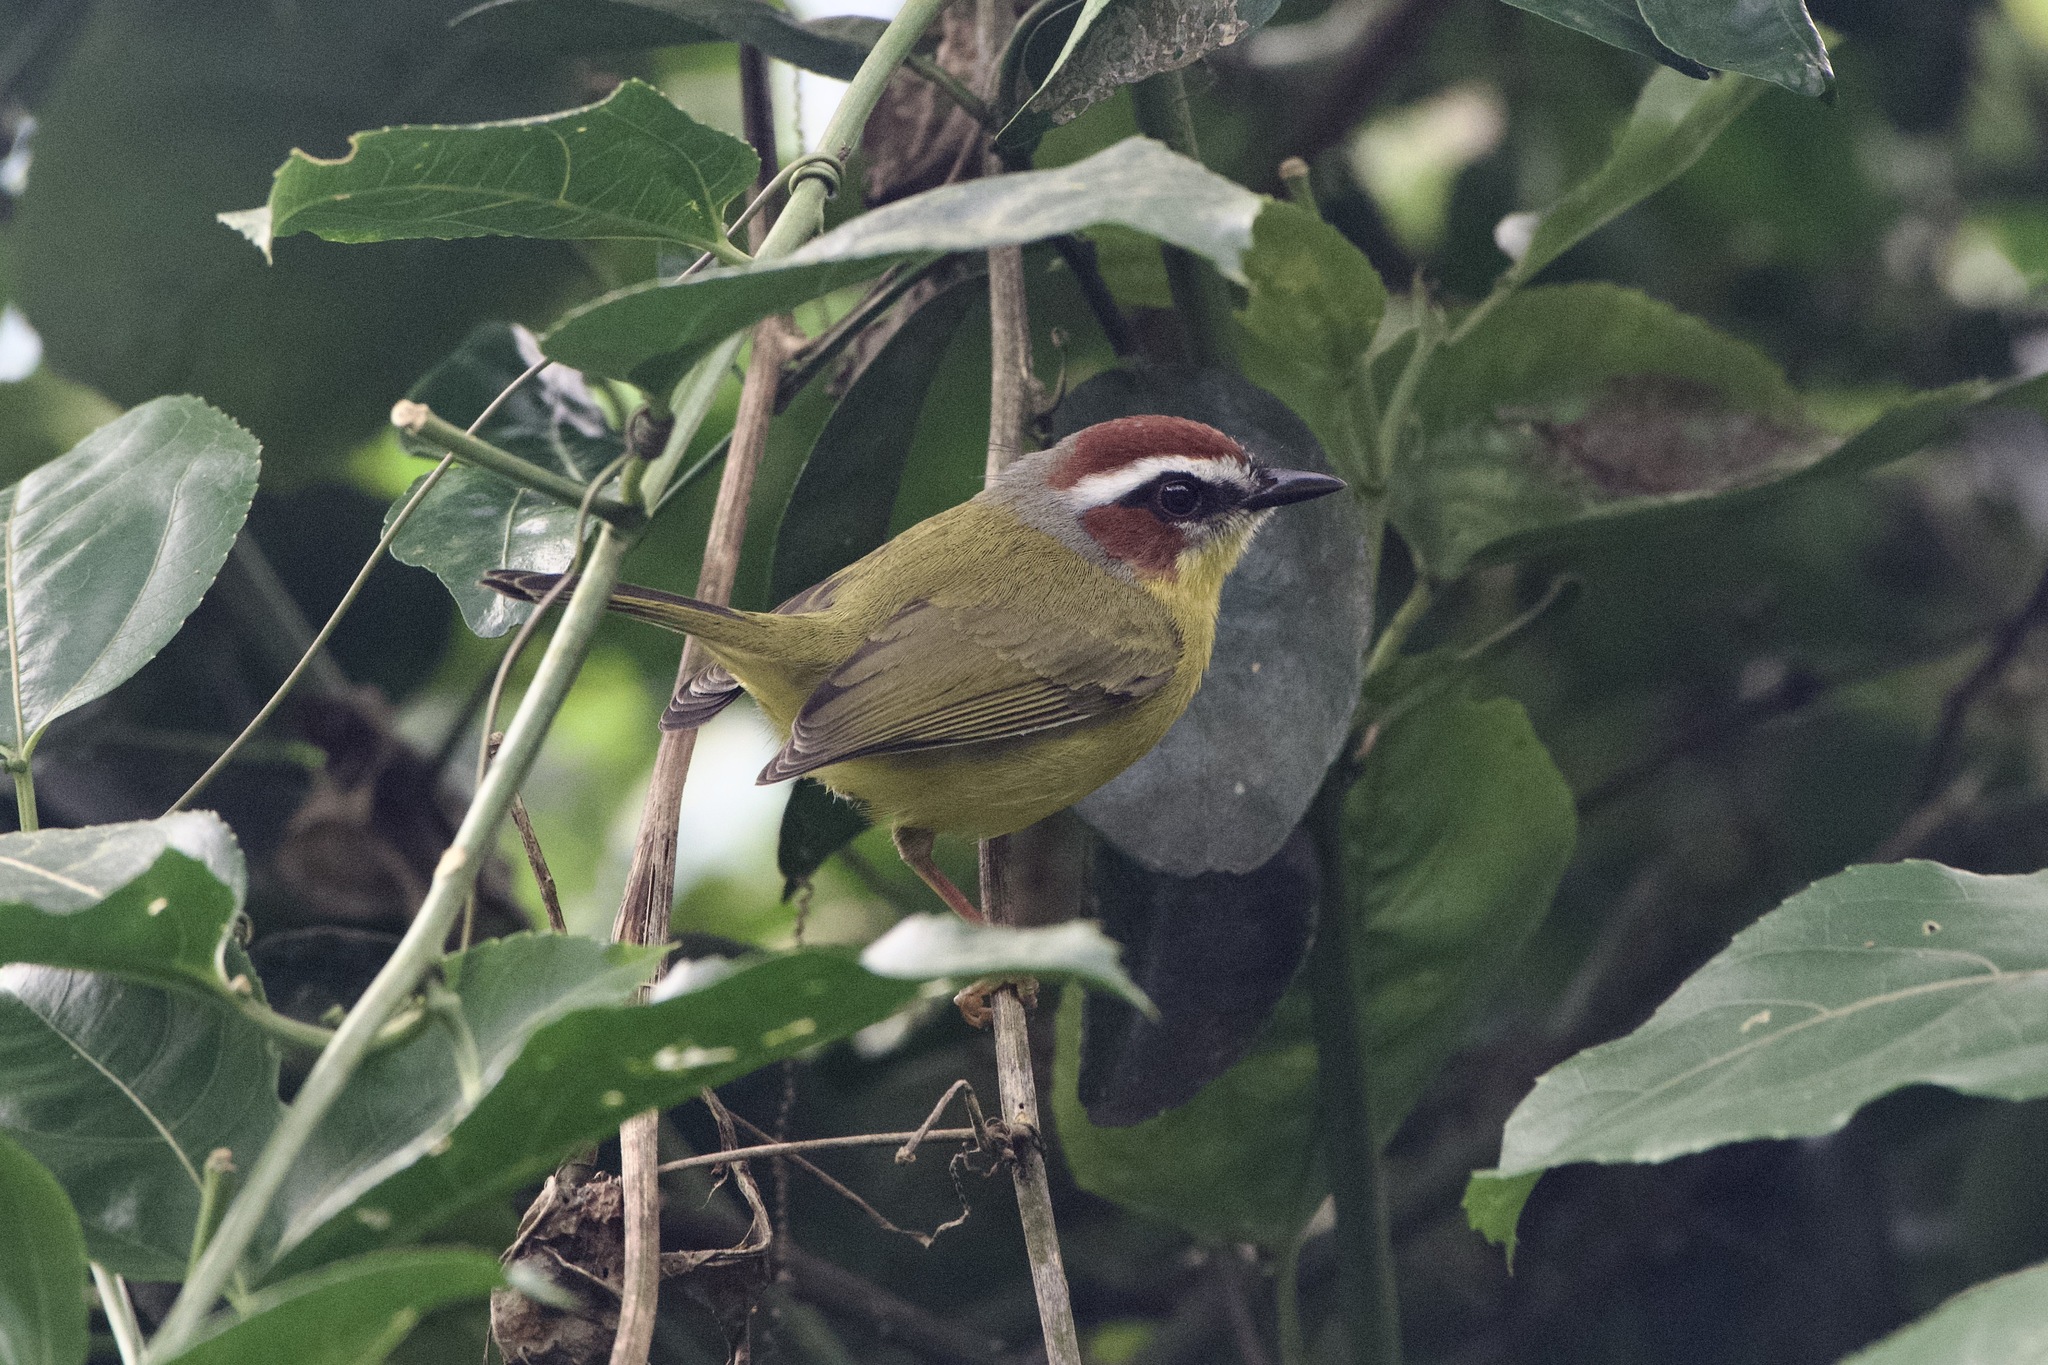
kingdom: Animalia
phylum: Chordata
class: Aves
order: Passeriformes
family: Parulidae
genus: Basileuterus
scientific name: Basileuterus rufifrons
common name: Rufous-capped warbler
